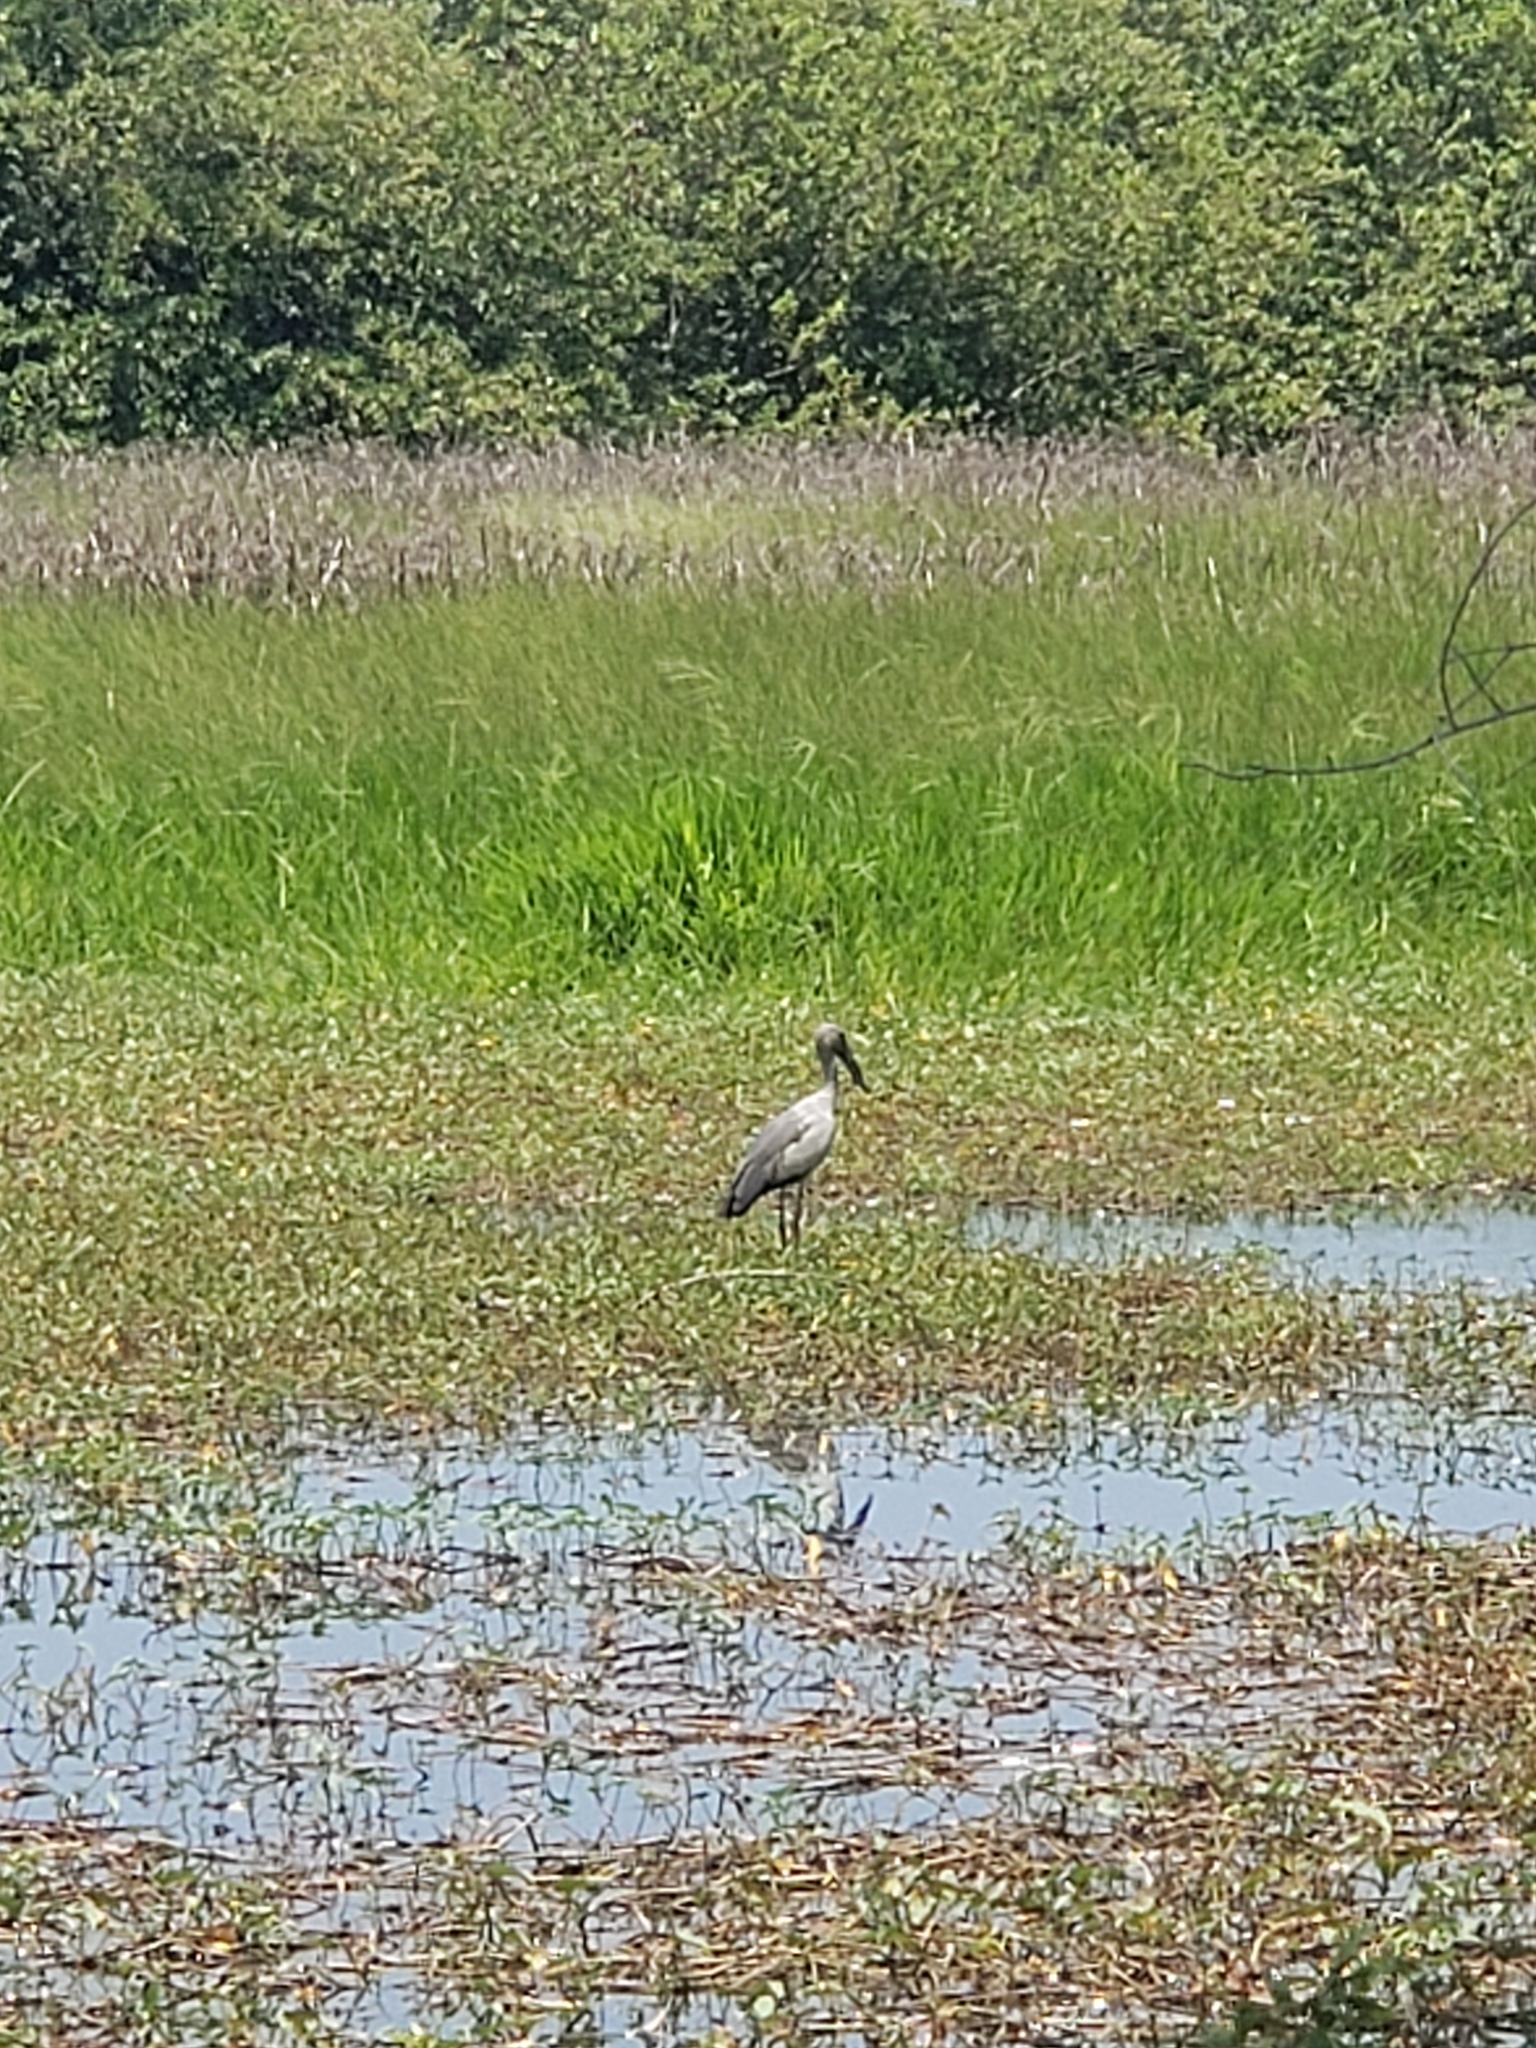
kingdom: Animalia
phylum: Chordata
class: Aves
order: Ciconiiformes
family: Ciconiidae
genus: Anastomus
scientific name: Anastomus oscitans
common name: Asian openbill
